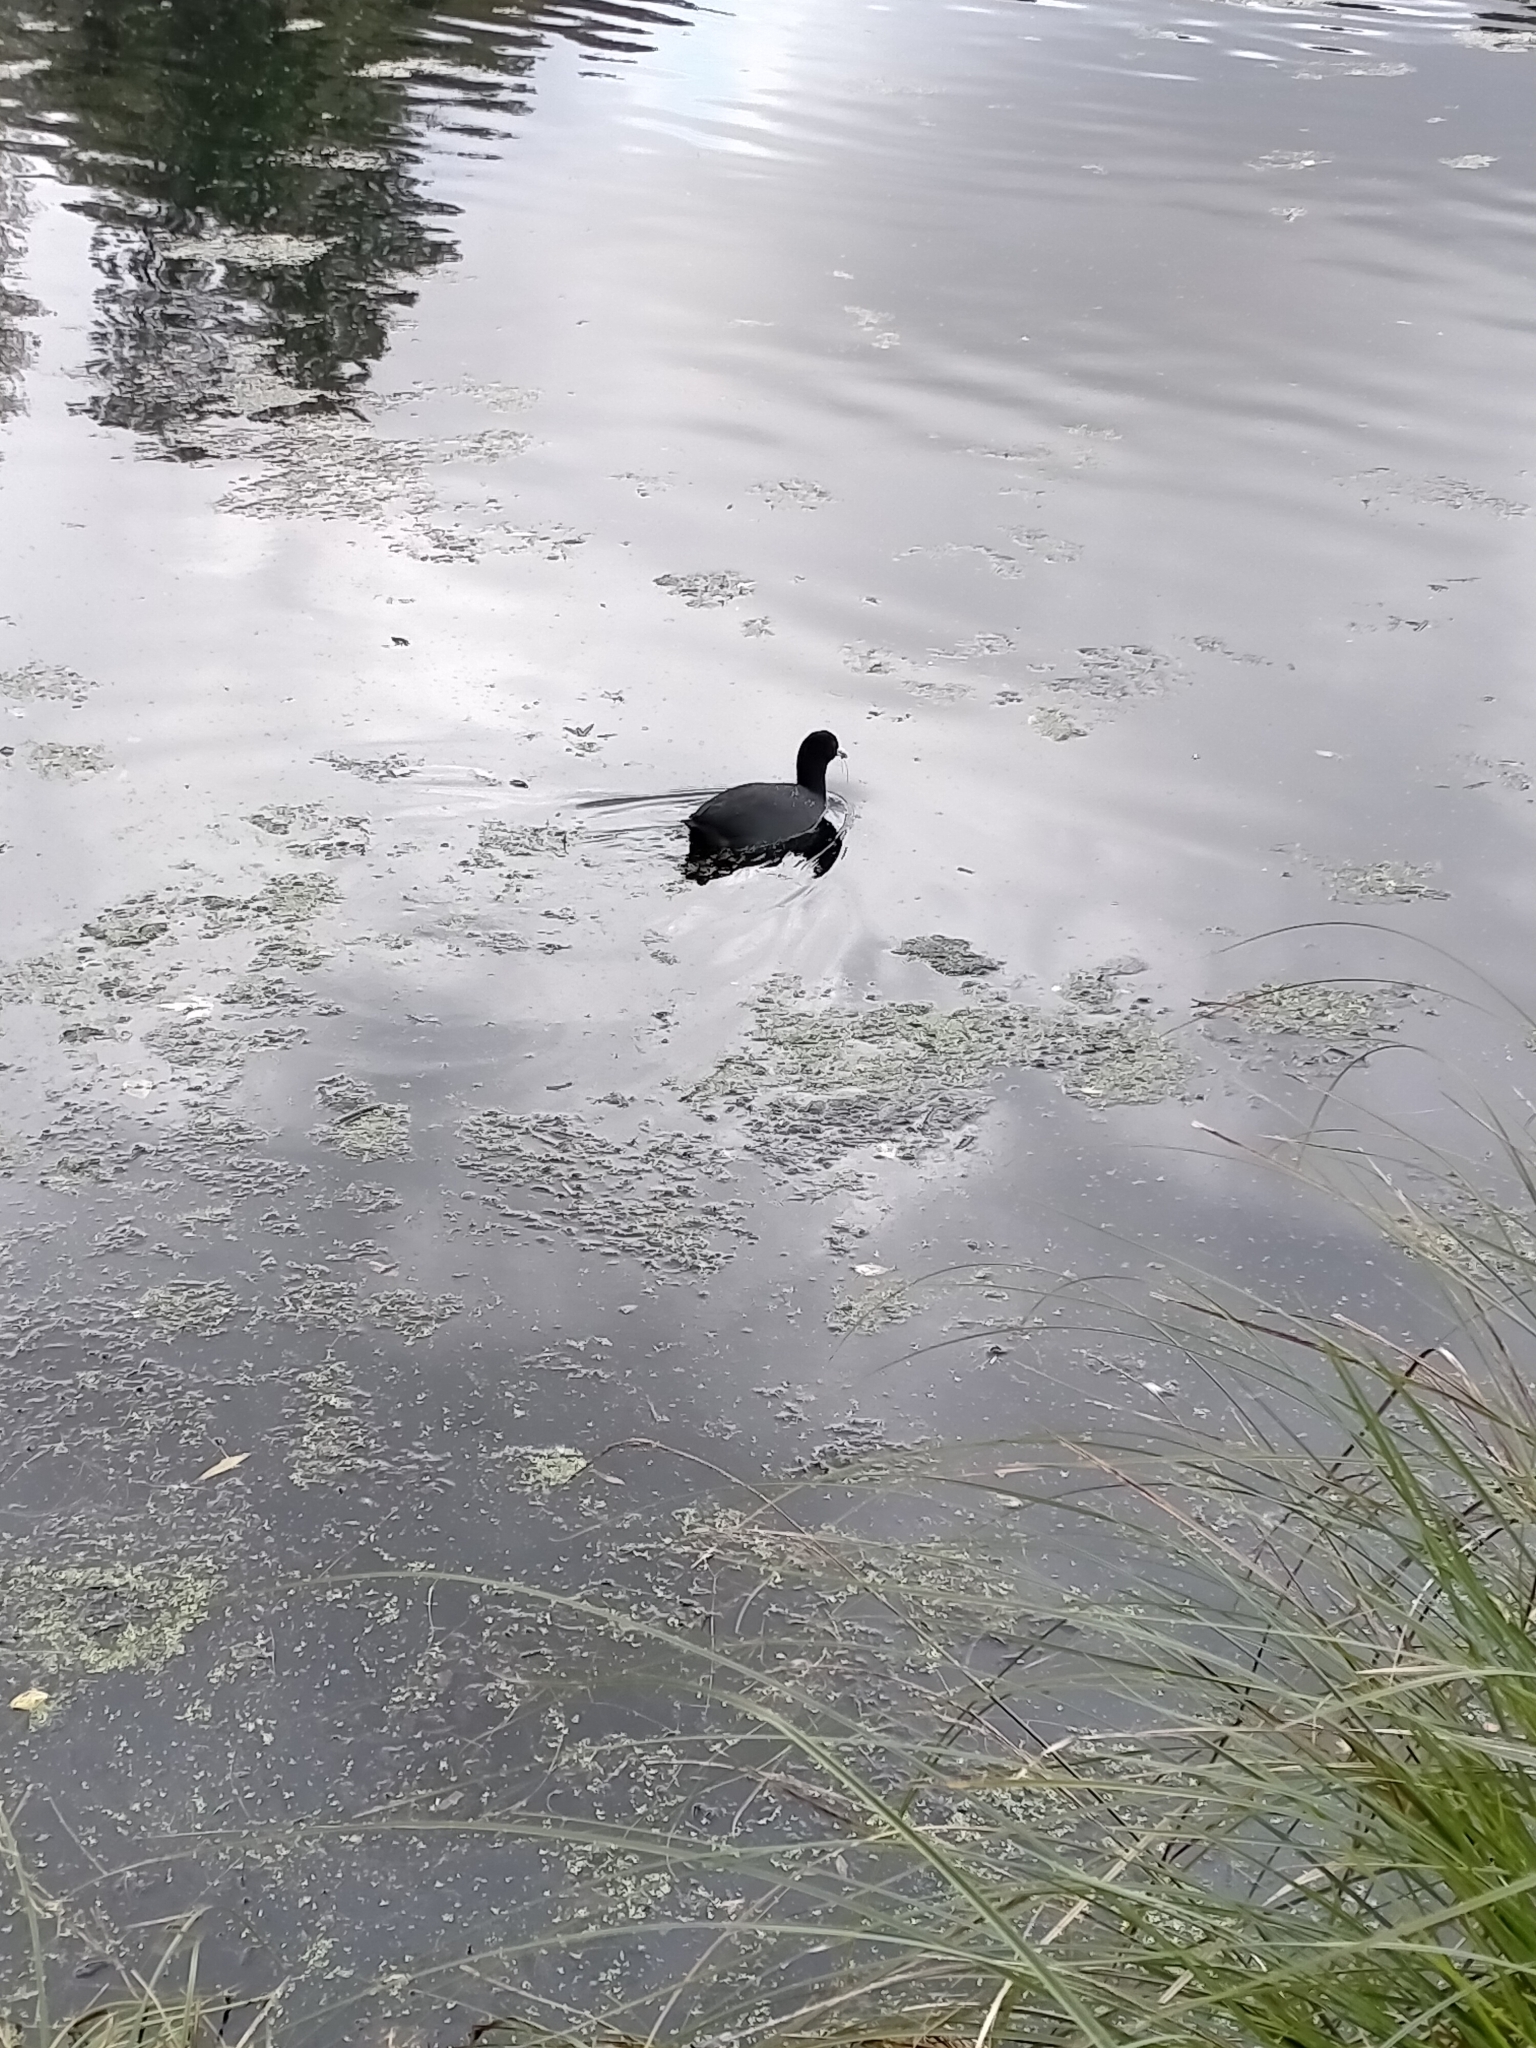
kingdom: Animalia
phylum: Chordata
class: Aves
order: Anseriformes
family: Anatidae
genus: Aythya
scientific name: Aythya novaeseelandiae
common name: New zealand scaup
